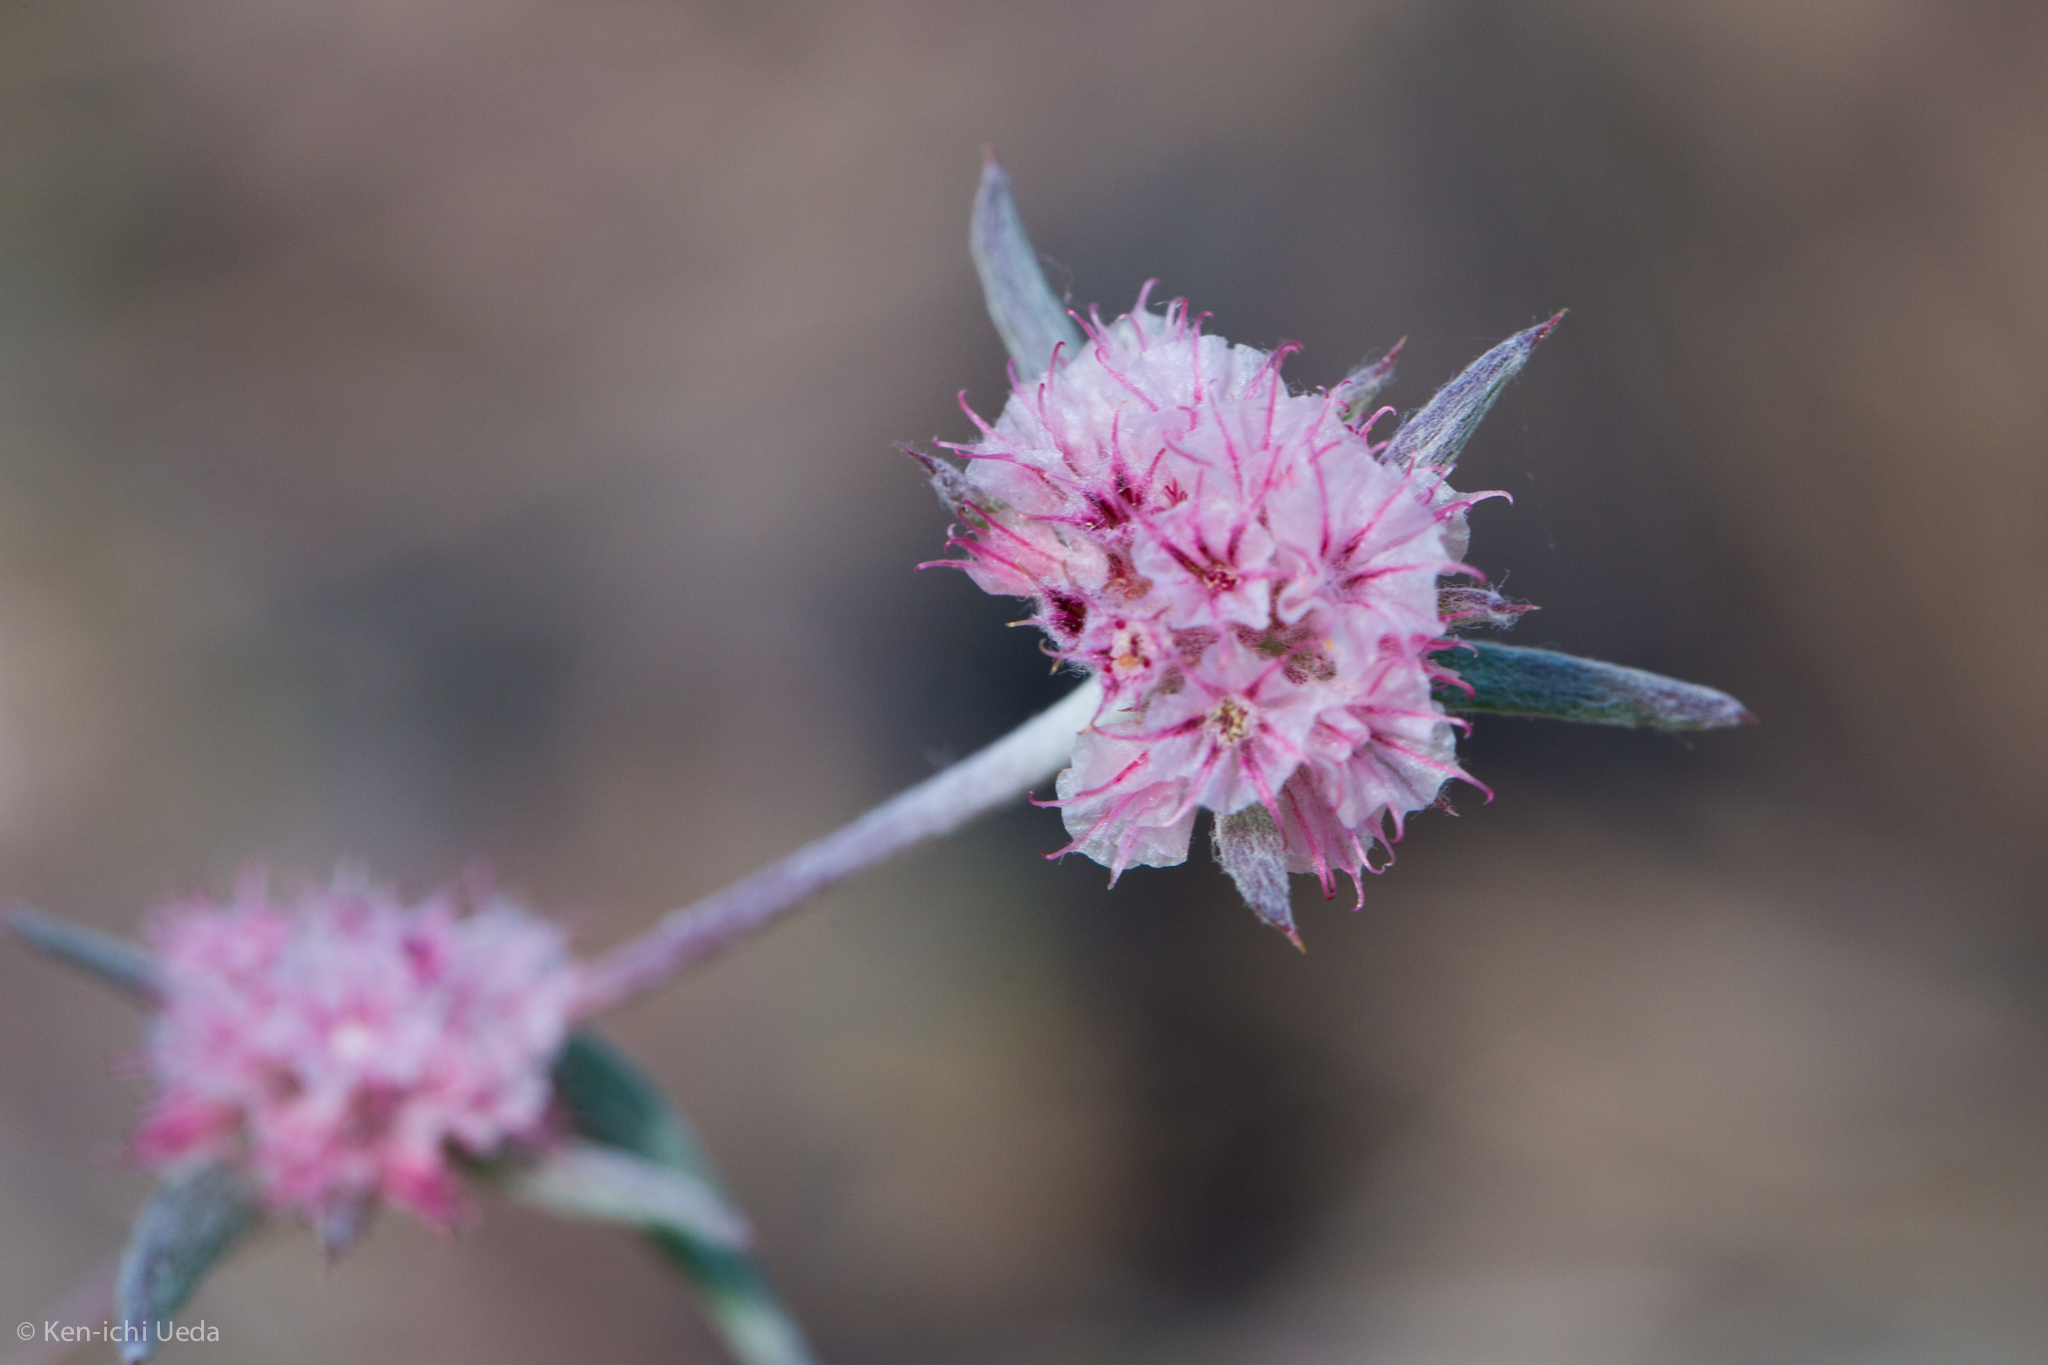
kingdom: Plantae
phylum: Tracheophyta
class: Magnoliopsida
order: Caryophyllales
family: Polygonaceae
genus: Chorizanthe
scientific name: Chorizanthe membranacea
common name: Pink spineflower
